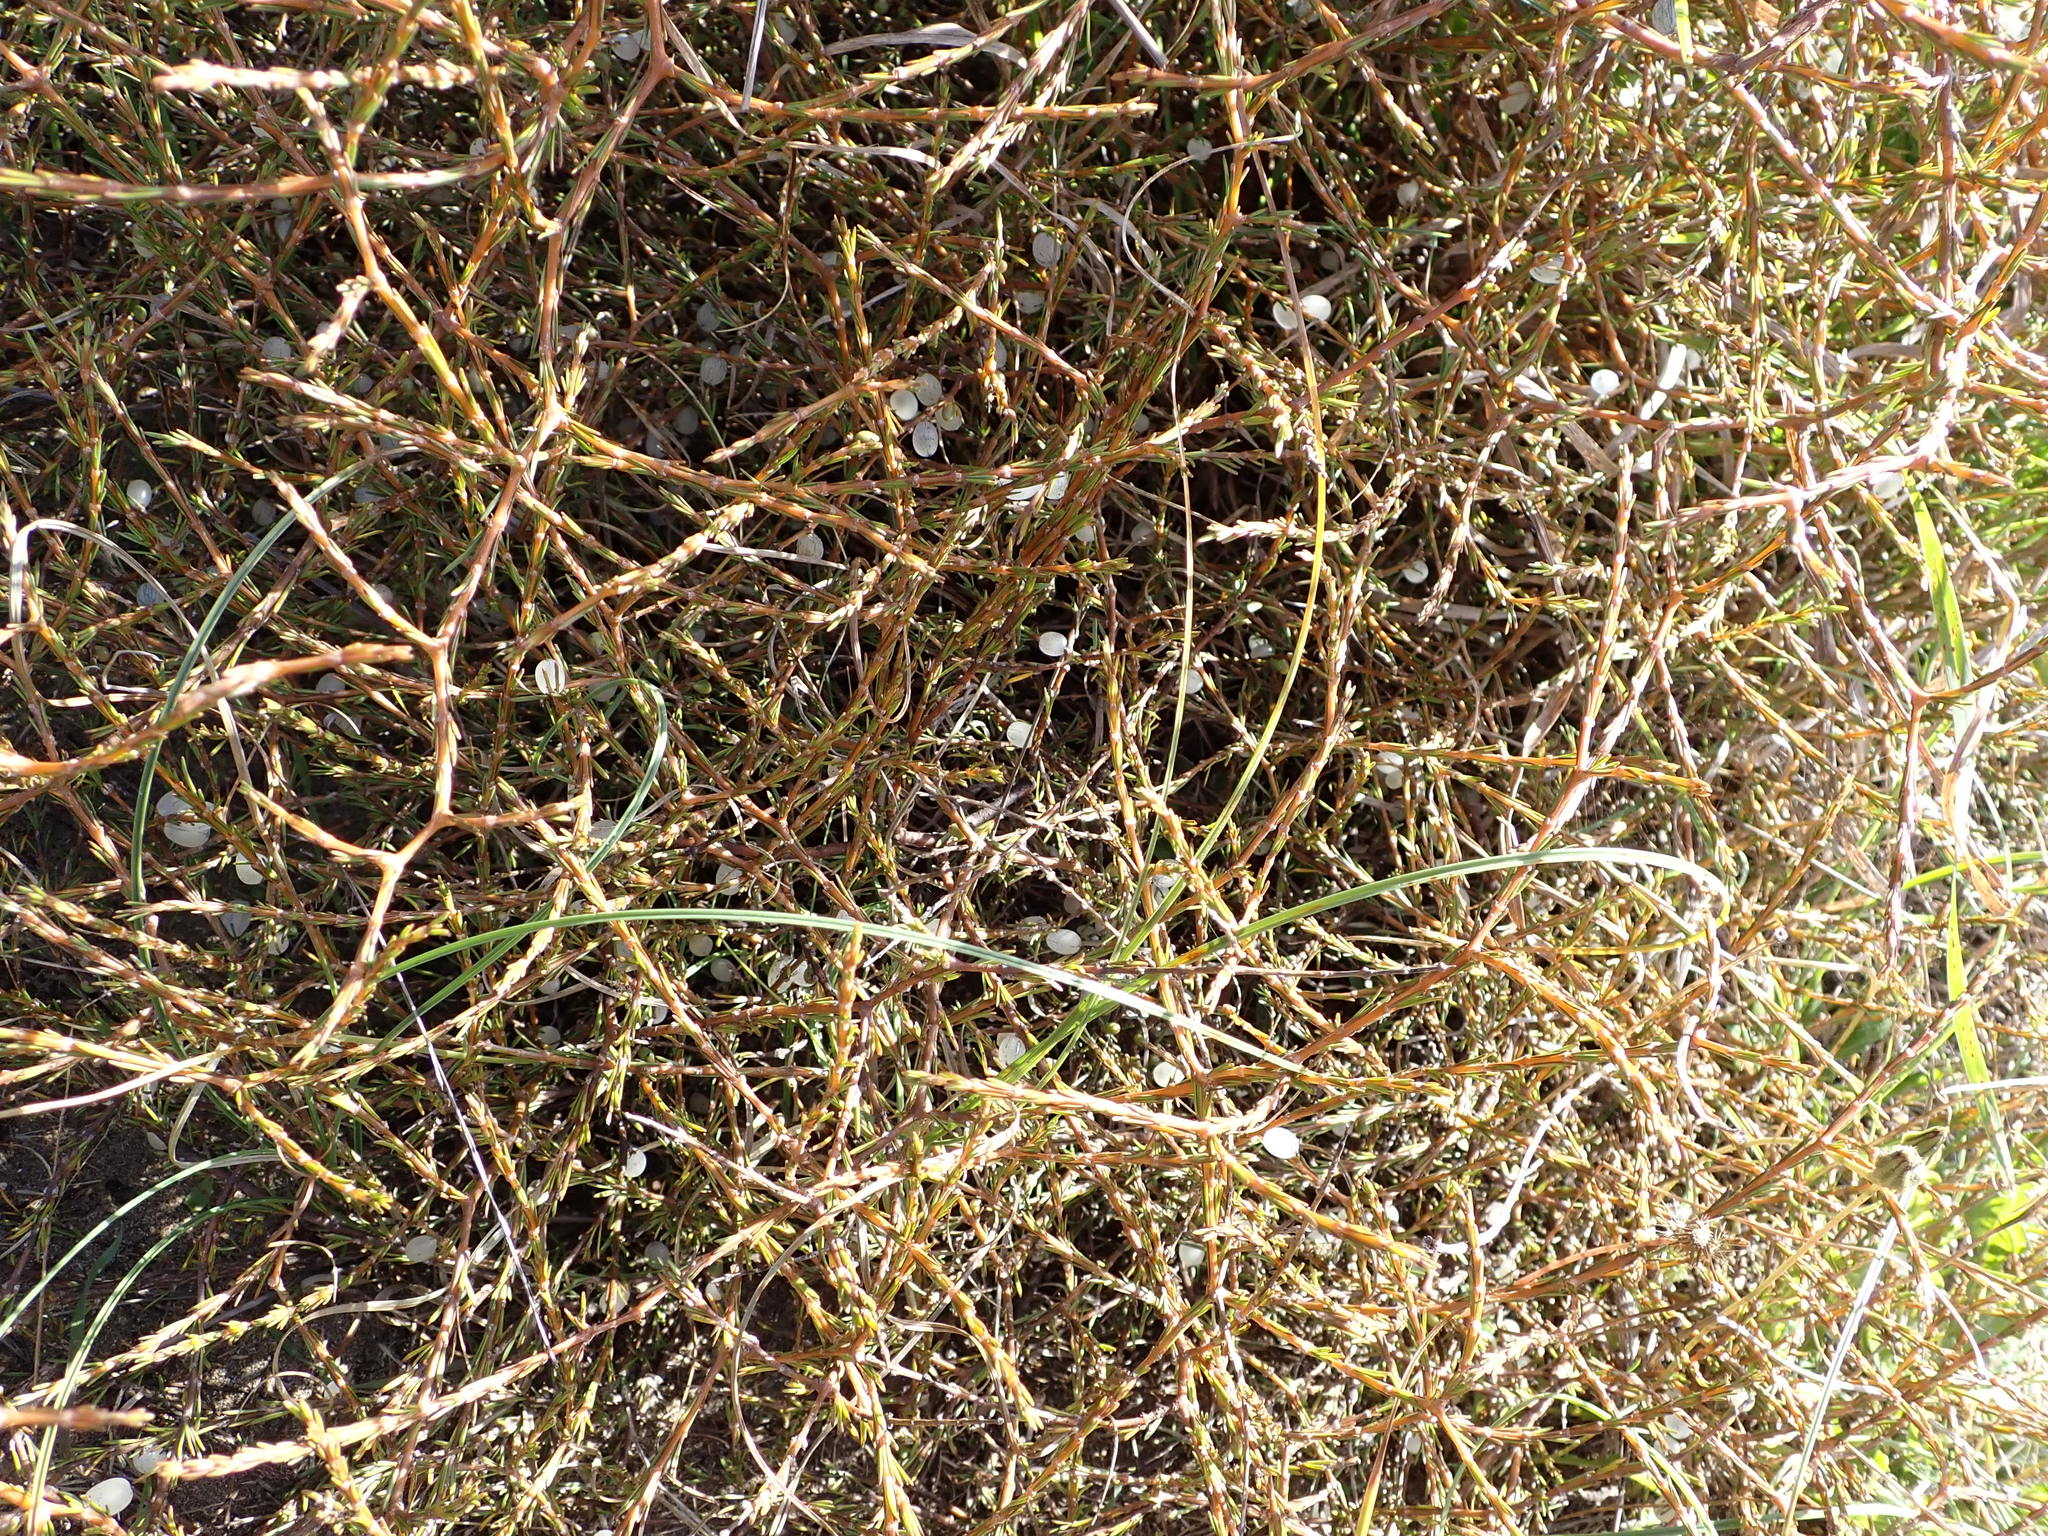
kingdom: Plantae
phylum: Tracheophyta
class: Magnoliopsida
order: Gentianales
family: Rubiaceae
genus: Coprosma
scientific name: Coprosma acerosa
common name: Sand coprosma
